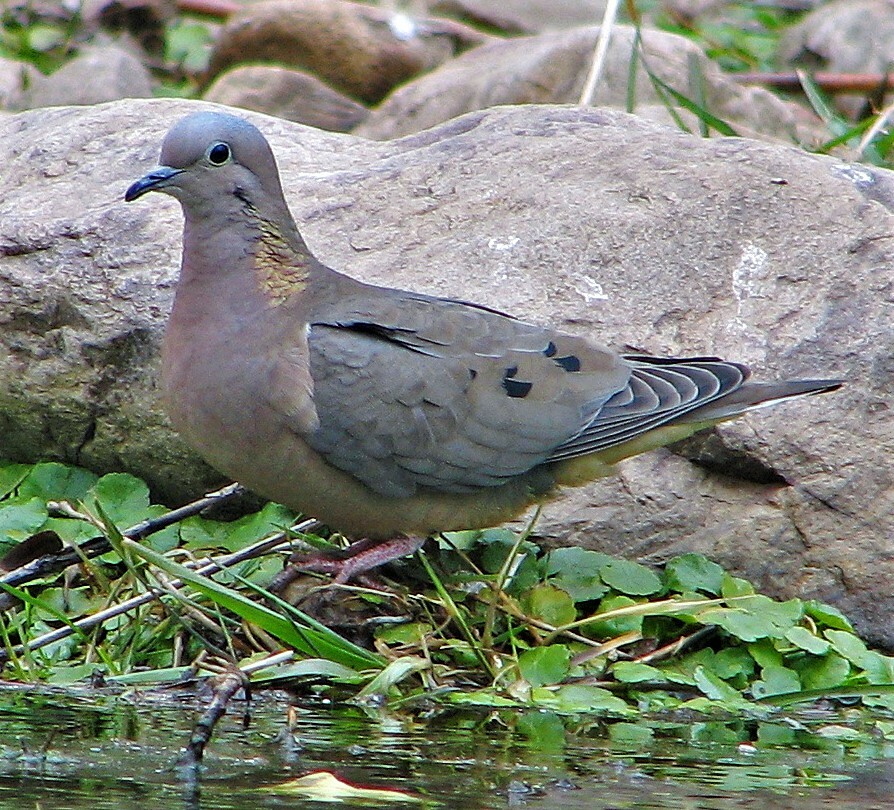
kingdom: Animalia
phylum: Chordata
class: Aves
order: Columbiformes
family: Columbidae
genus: Zenaida
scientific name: Zenaida auriculata
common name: Eared dove
